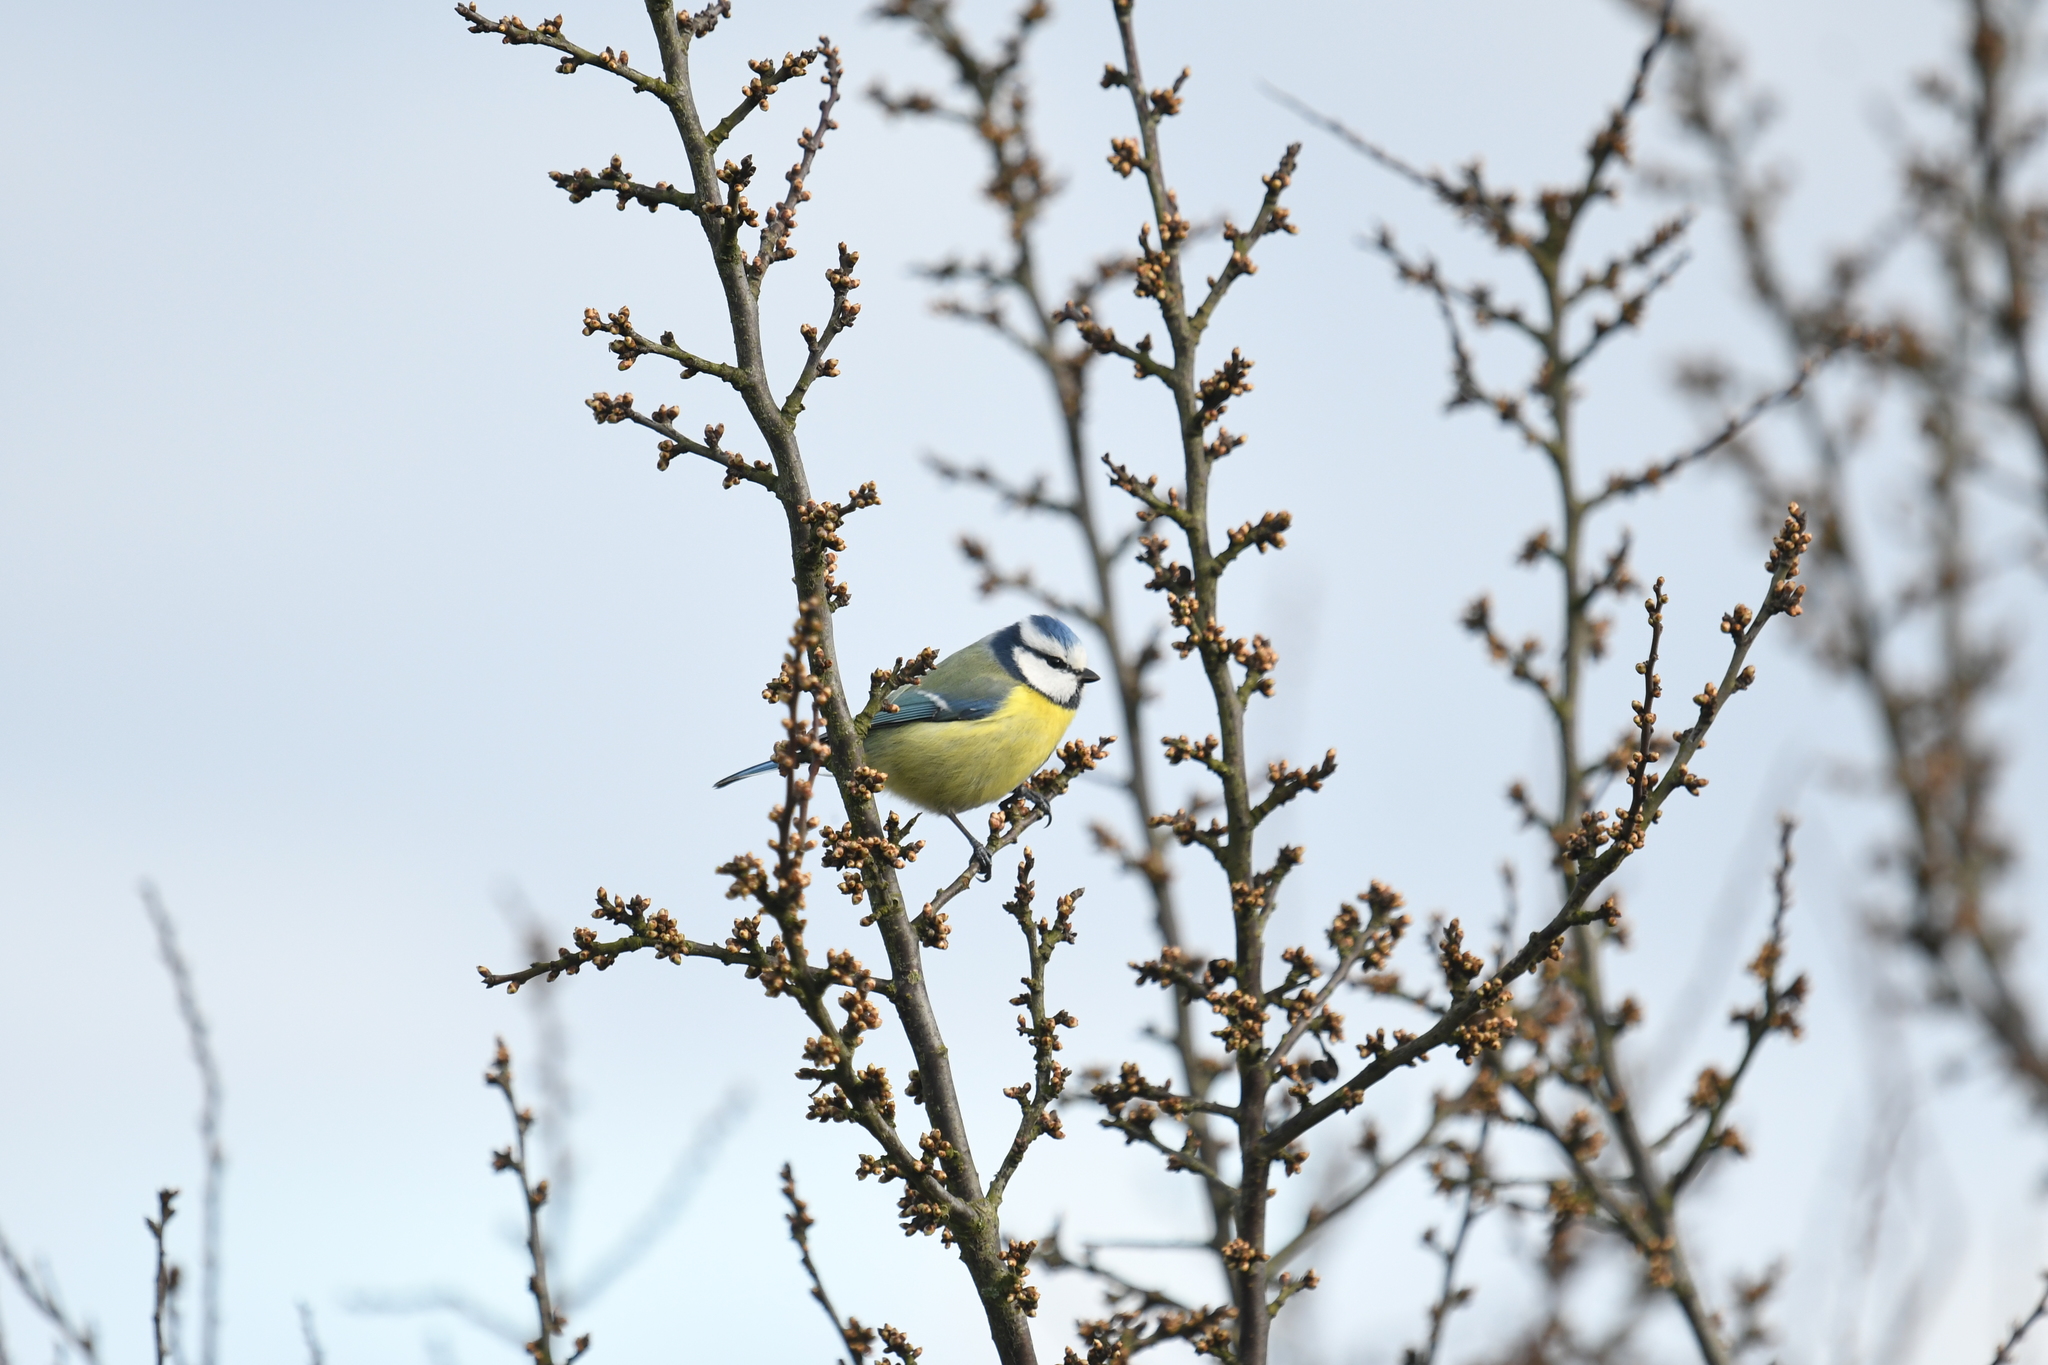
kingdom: Animalia
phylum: Chordata
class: Aves
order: Passeriformes
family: Paridae
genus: Cyanistes
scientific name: Cyanistes caeruleus
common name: Eurasian blue tit
